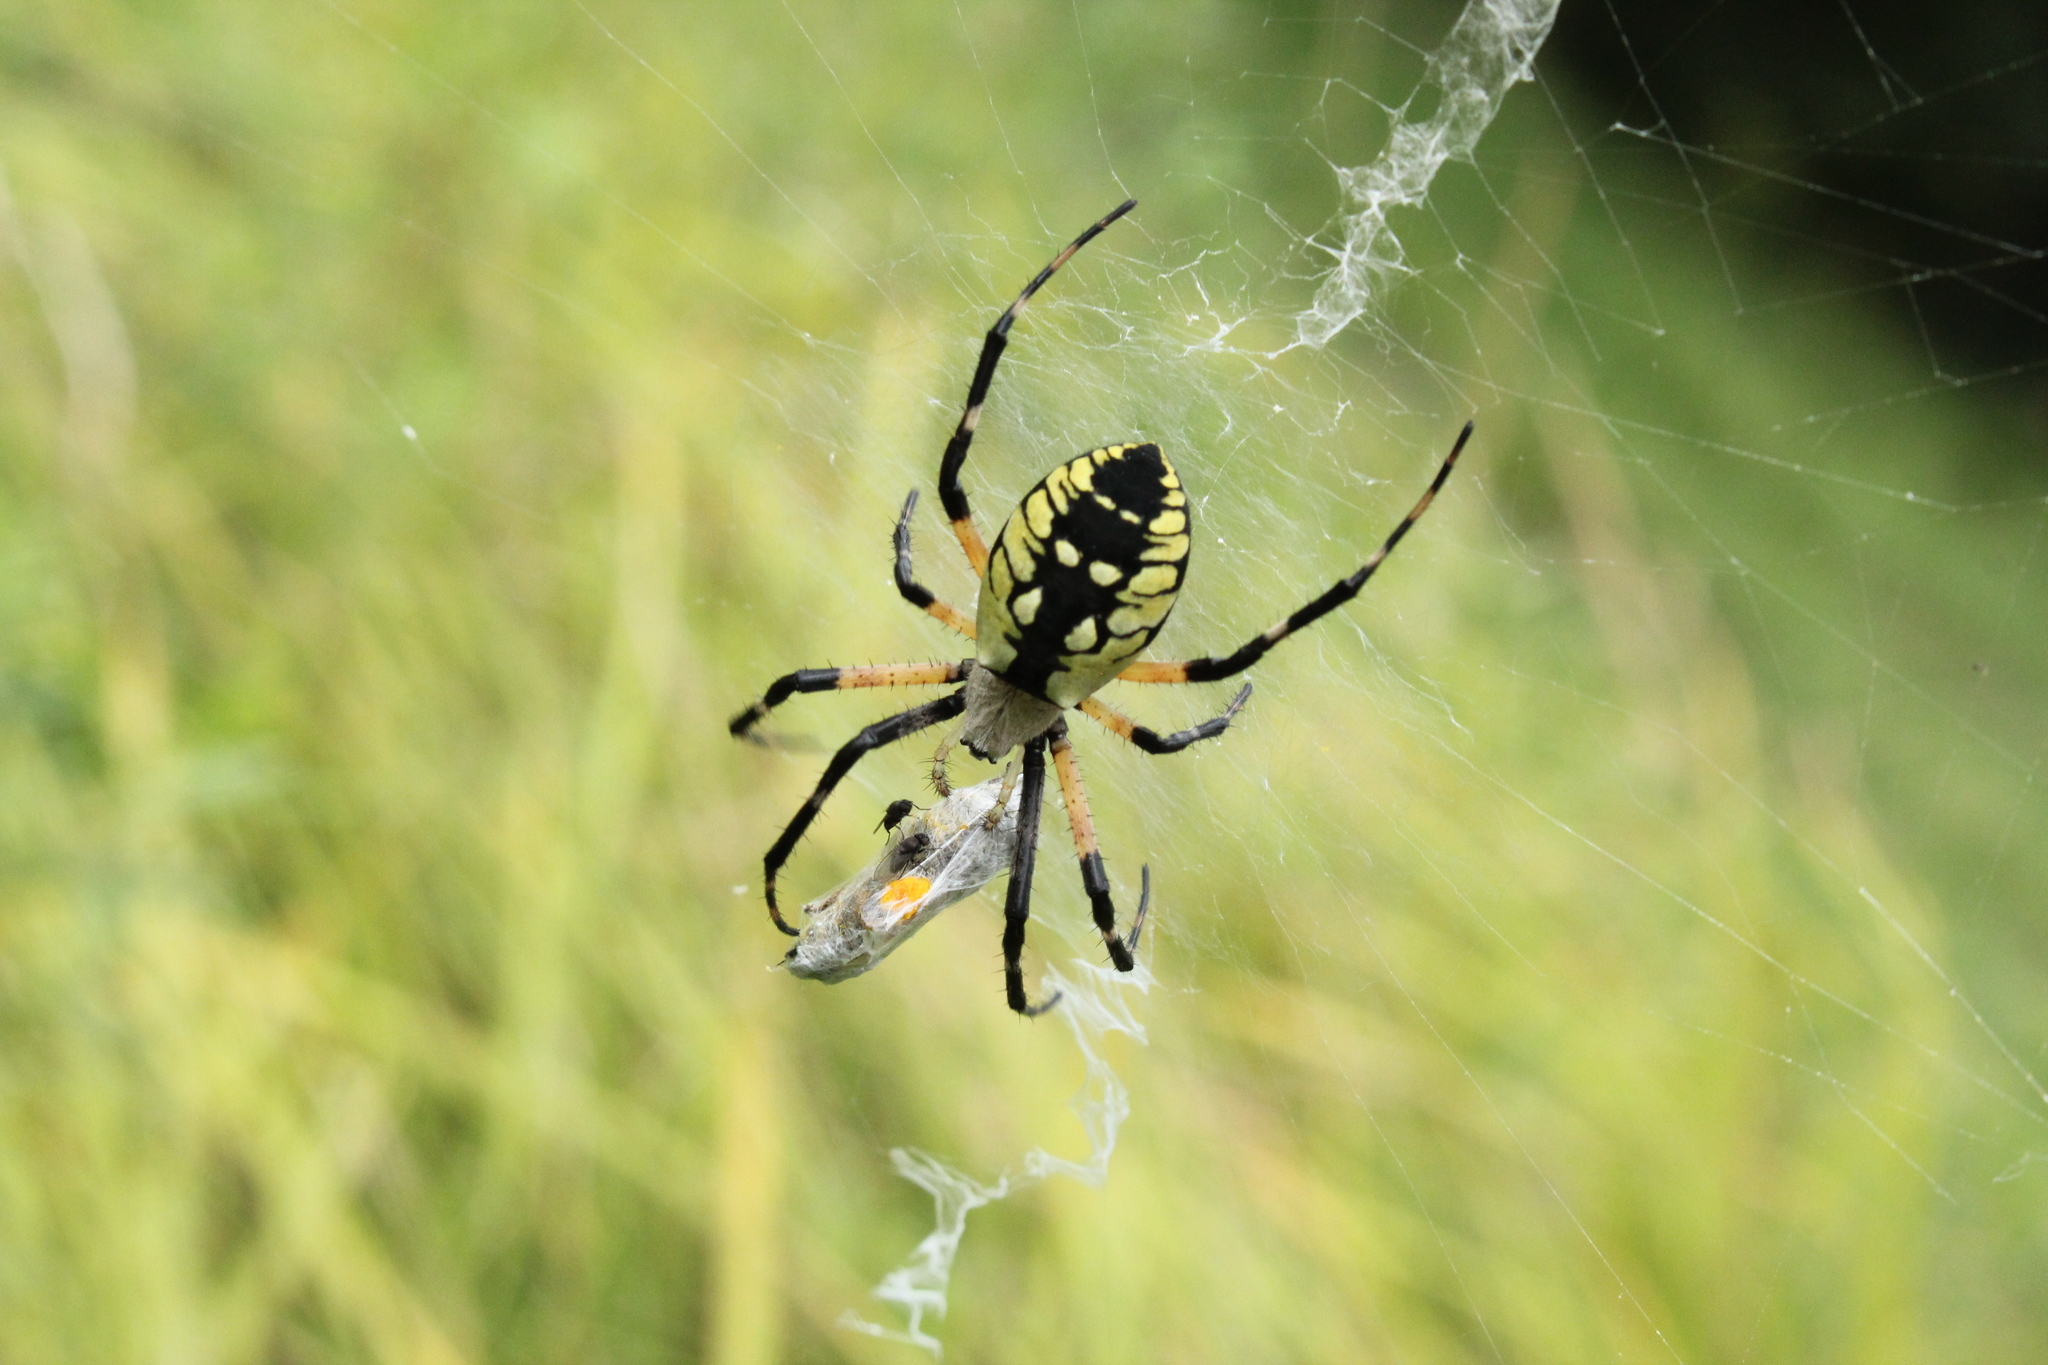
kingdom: Animalia
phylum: Arthropoda
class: Arachnida
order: Araneae
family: Araneidae
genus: Argiope
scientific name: Argiope aurantia
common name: Orb weavers
